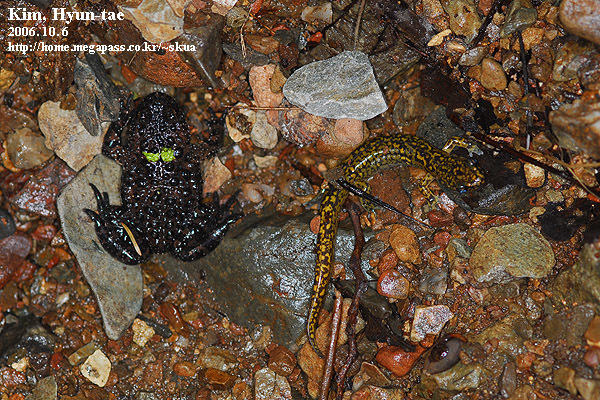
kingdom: Animalia
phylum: Chordata
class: Amphibia
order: Anura
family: Bombinatoridae
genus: Bombina
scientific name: Bombina orientalis
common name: Oriental firebelly toad
